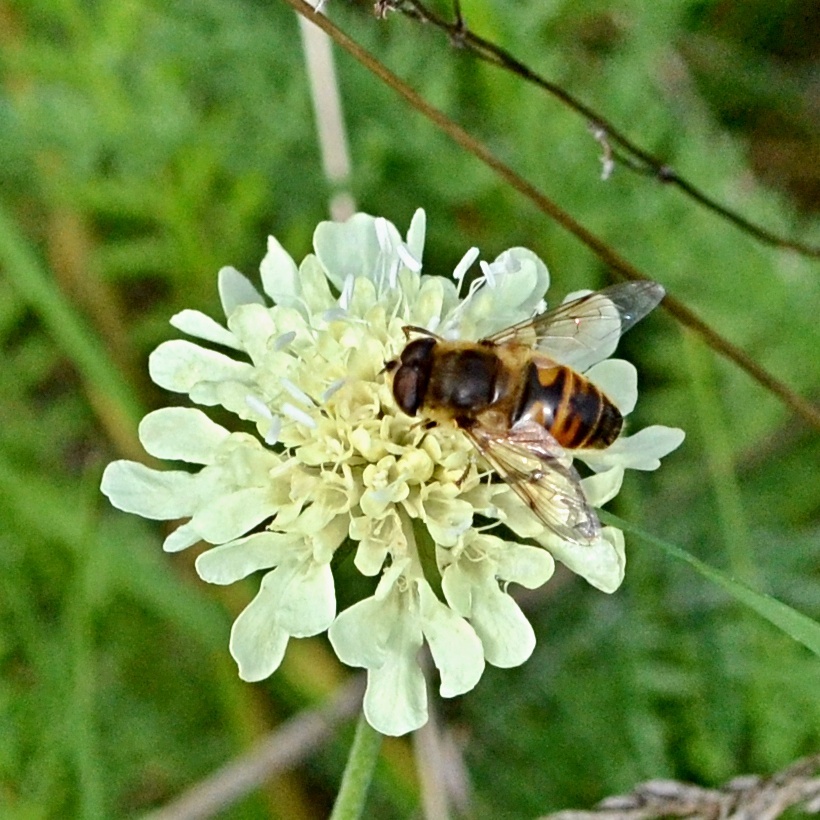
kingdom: Animalia
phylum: Arthropoda
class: Insecta
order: Diptera
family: Syrphidae
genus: Eristalis
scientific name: Eristalis tenax
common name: Drone fly
